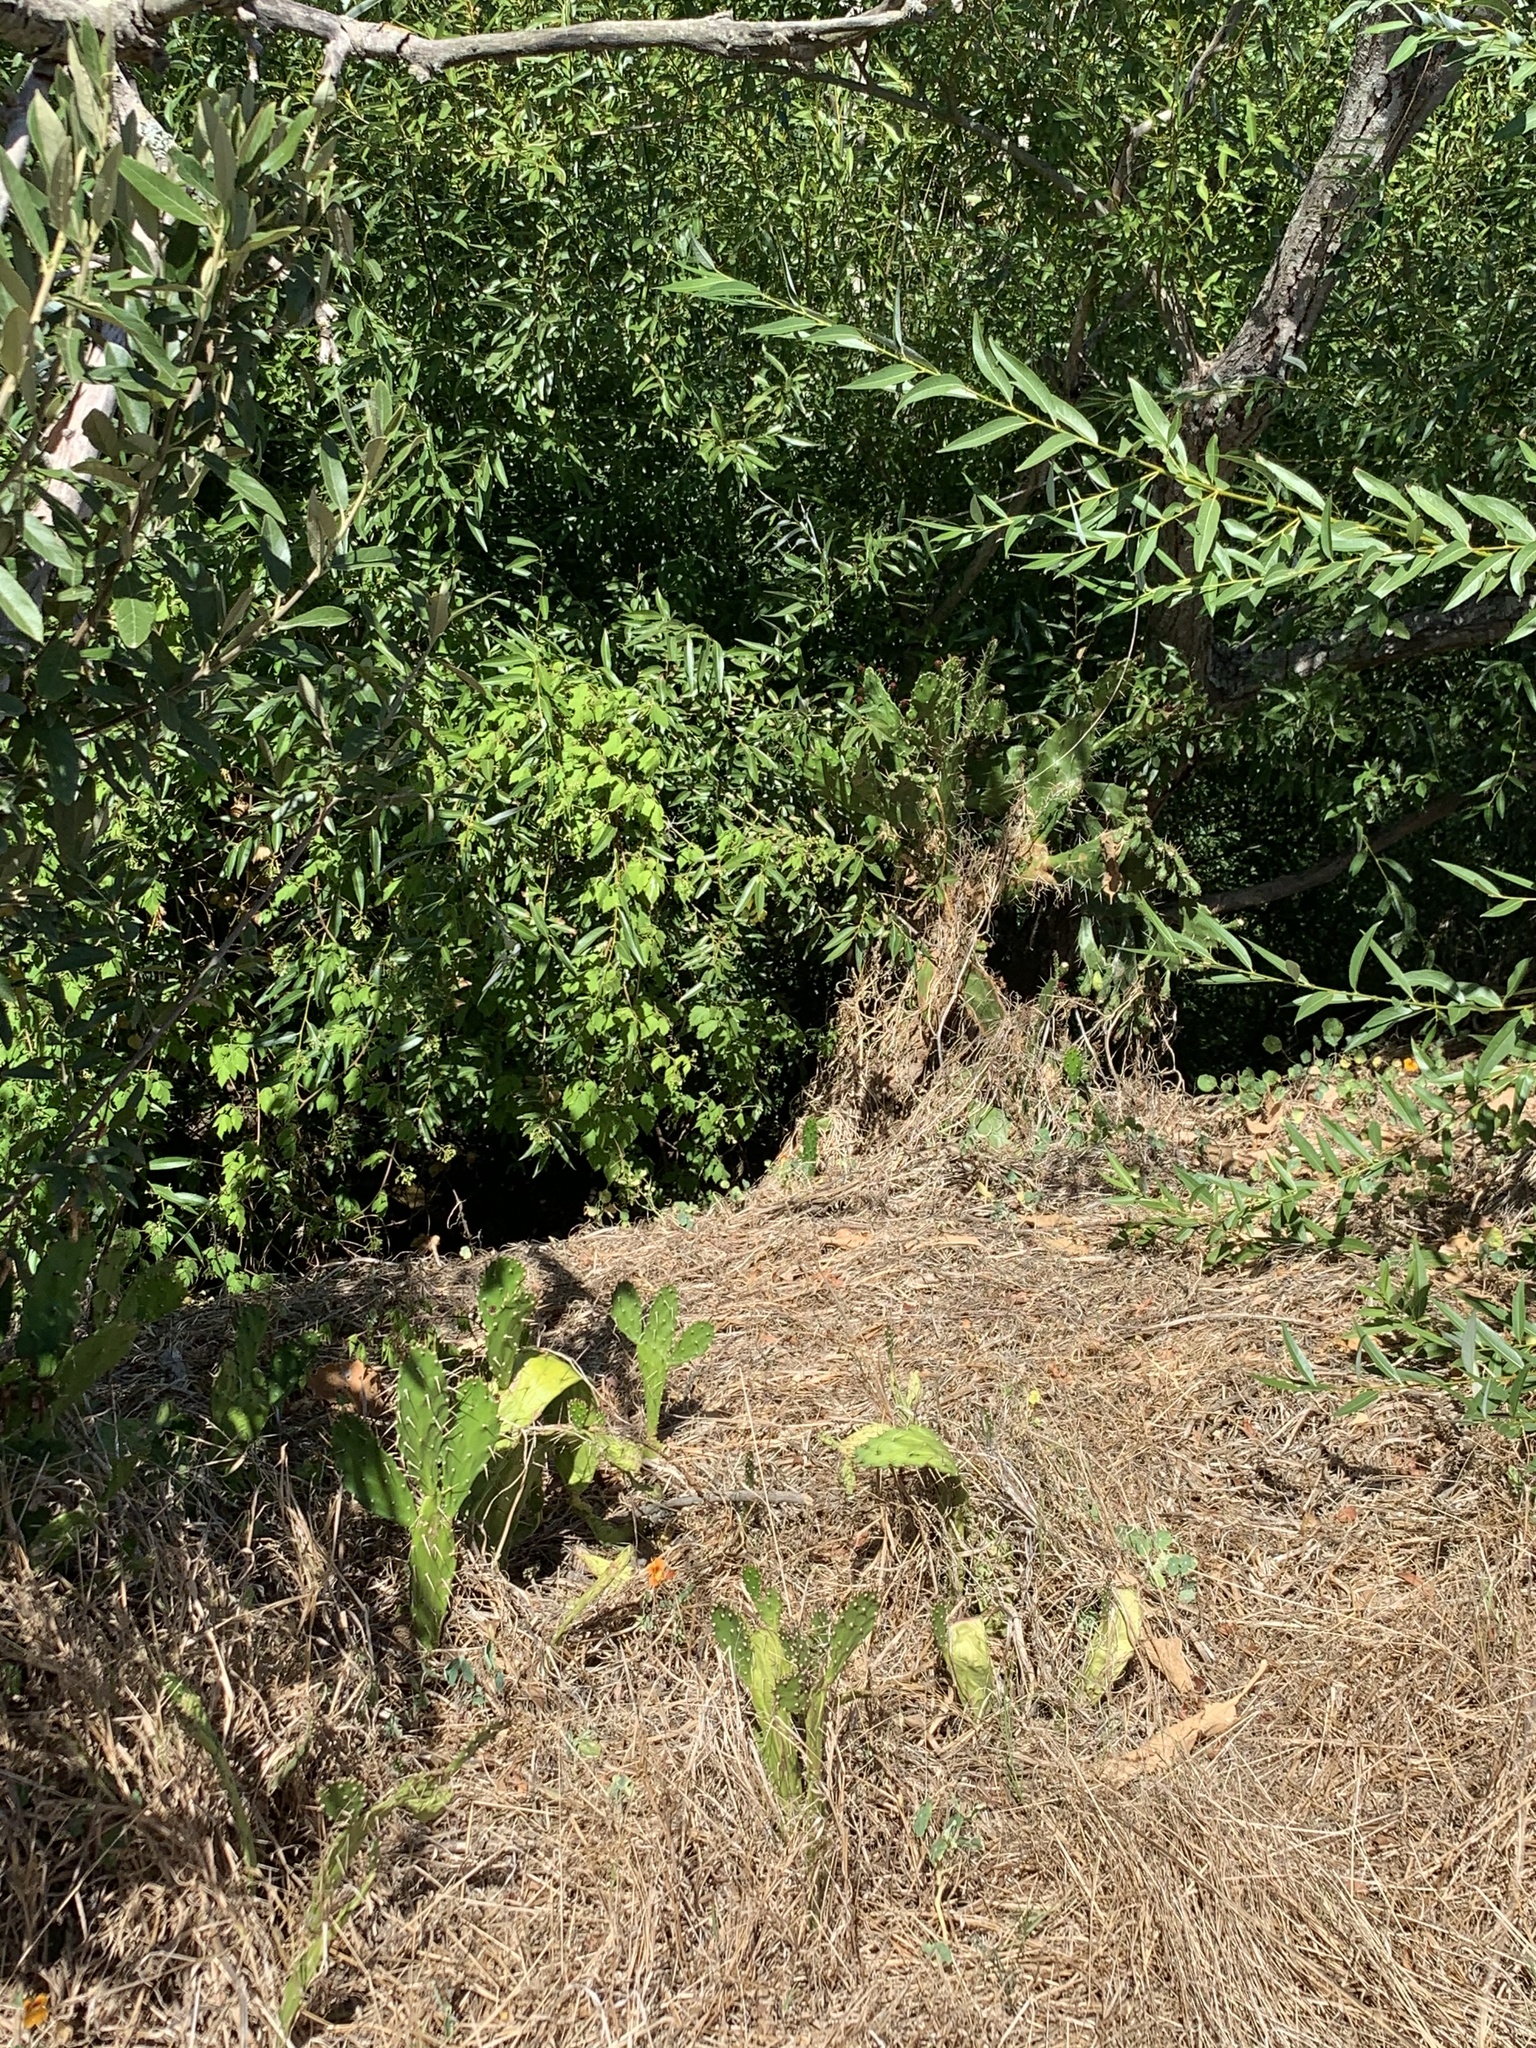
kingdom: Plantae
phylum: Tracheophyta
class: Magnoliopsida
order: Caryophyllales
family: Cactaceae
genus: Opuntia
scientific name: Opuntia monacantha
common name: Common pricklypear
